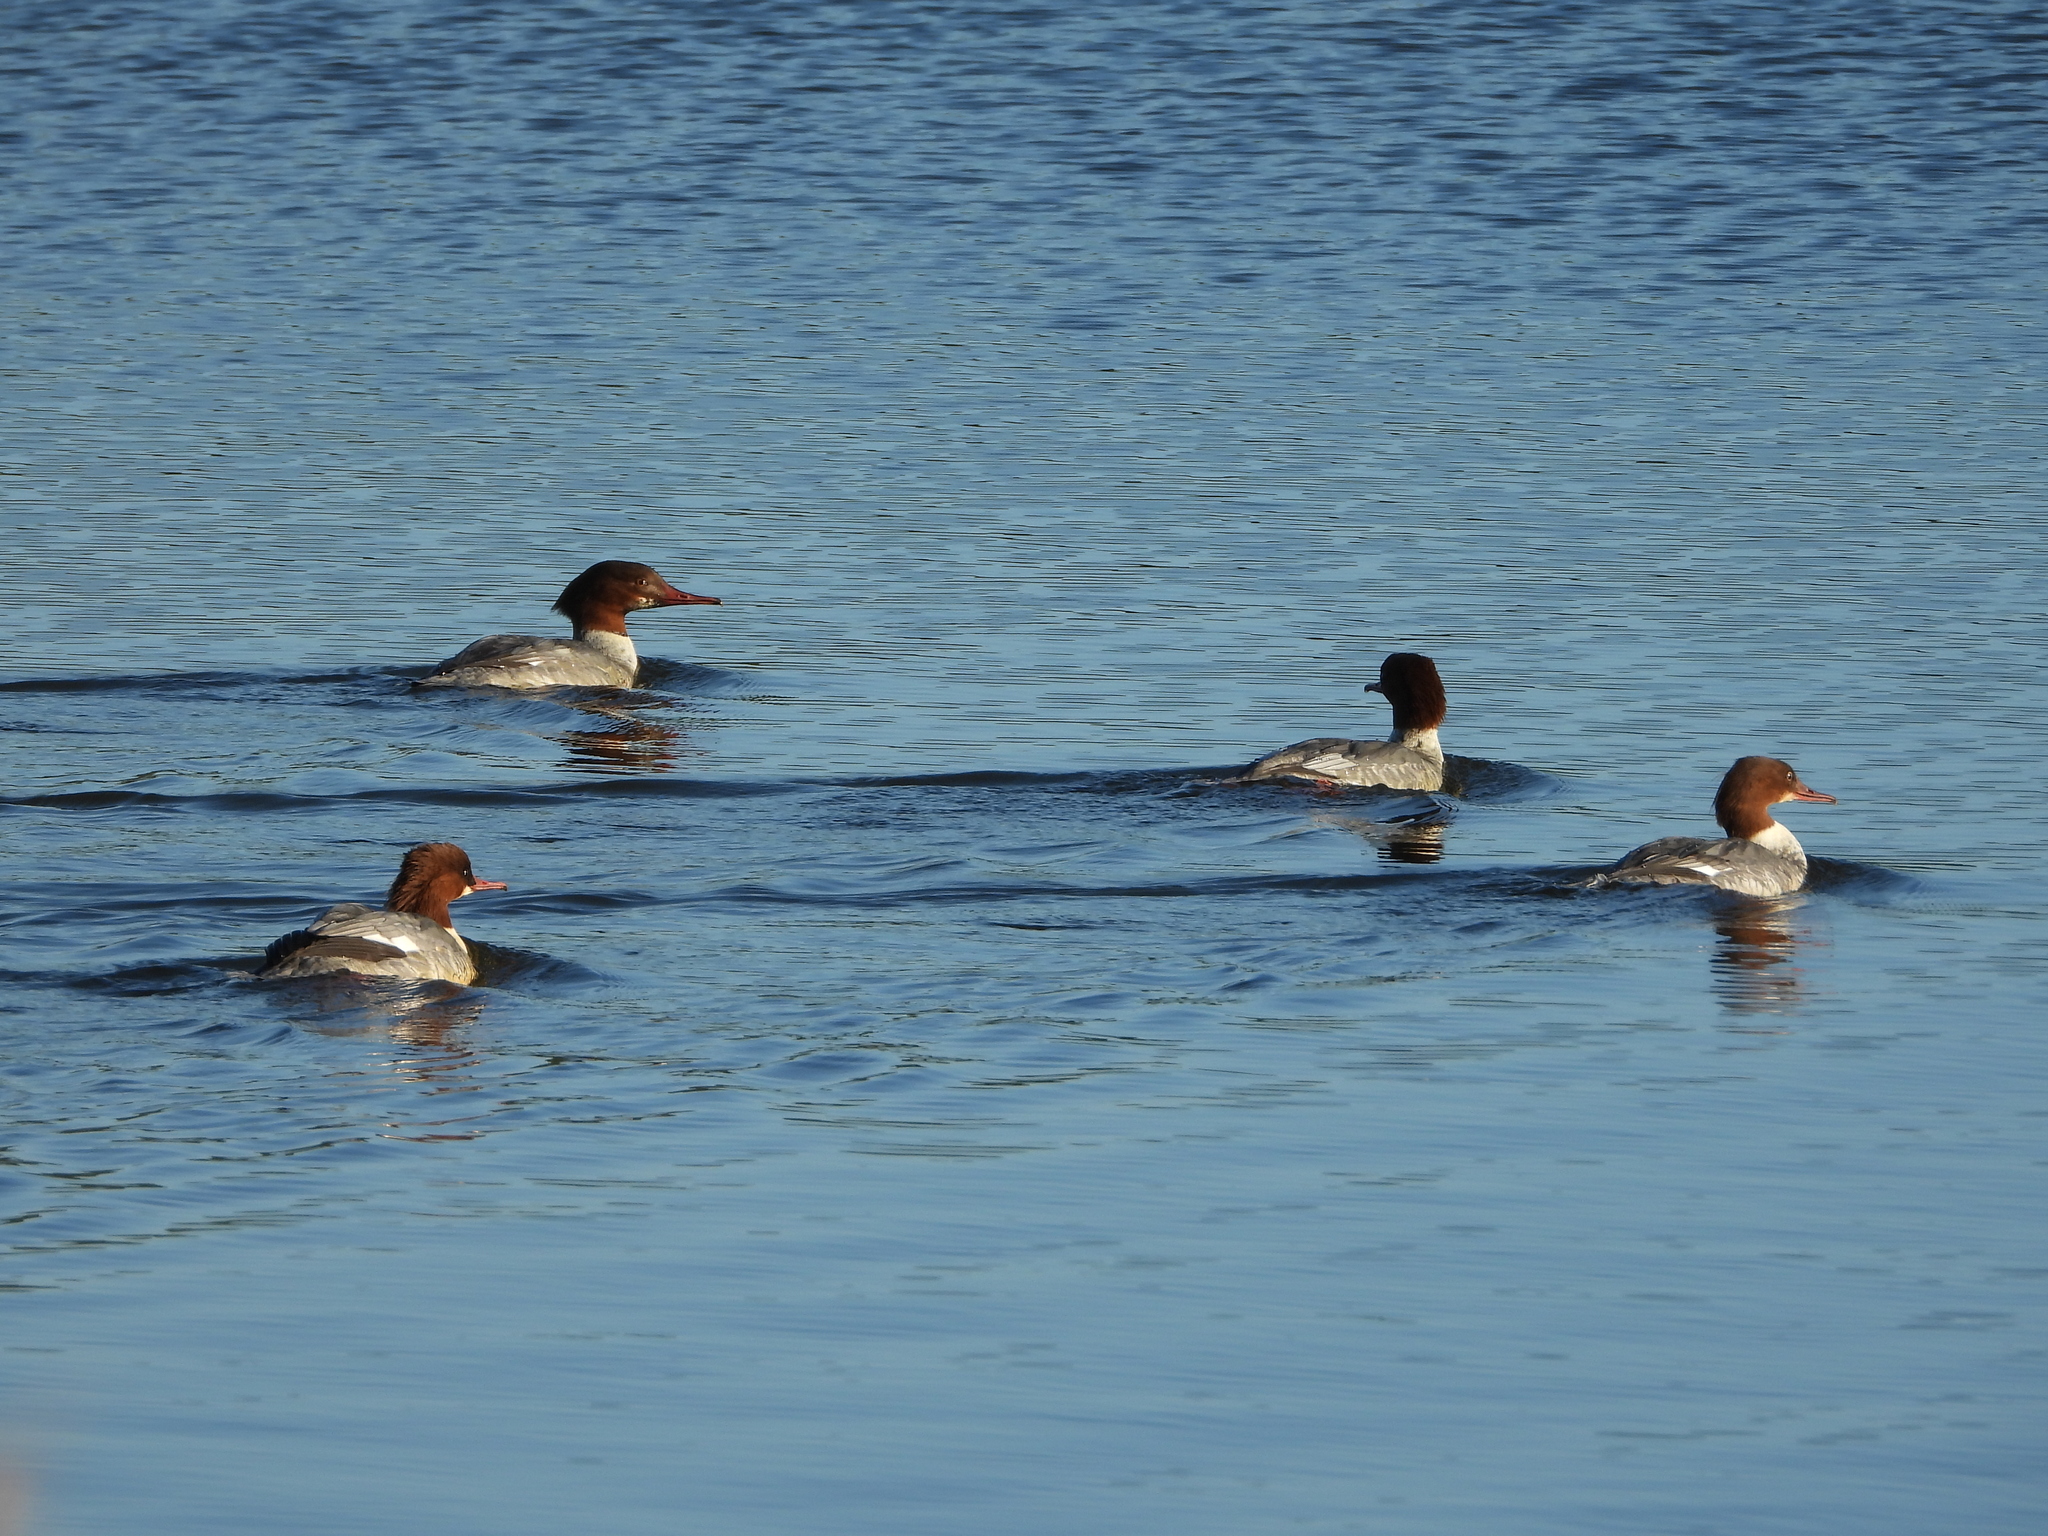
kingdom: Animalia
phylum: Chordata
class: Aves
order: Anseriformes
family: Anatidae
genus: Mergus
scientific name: Mergus merganser
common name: Common merganser
